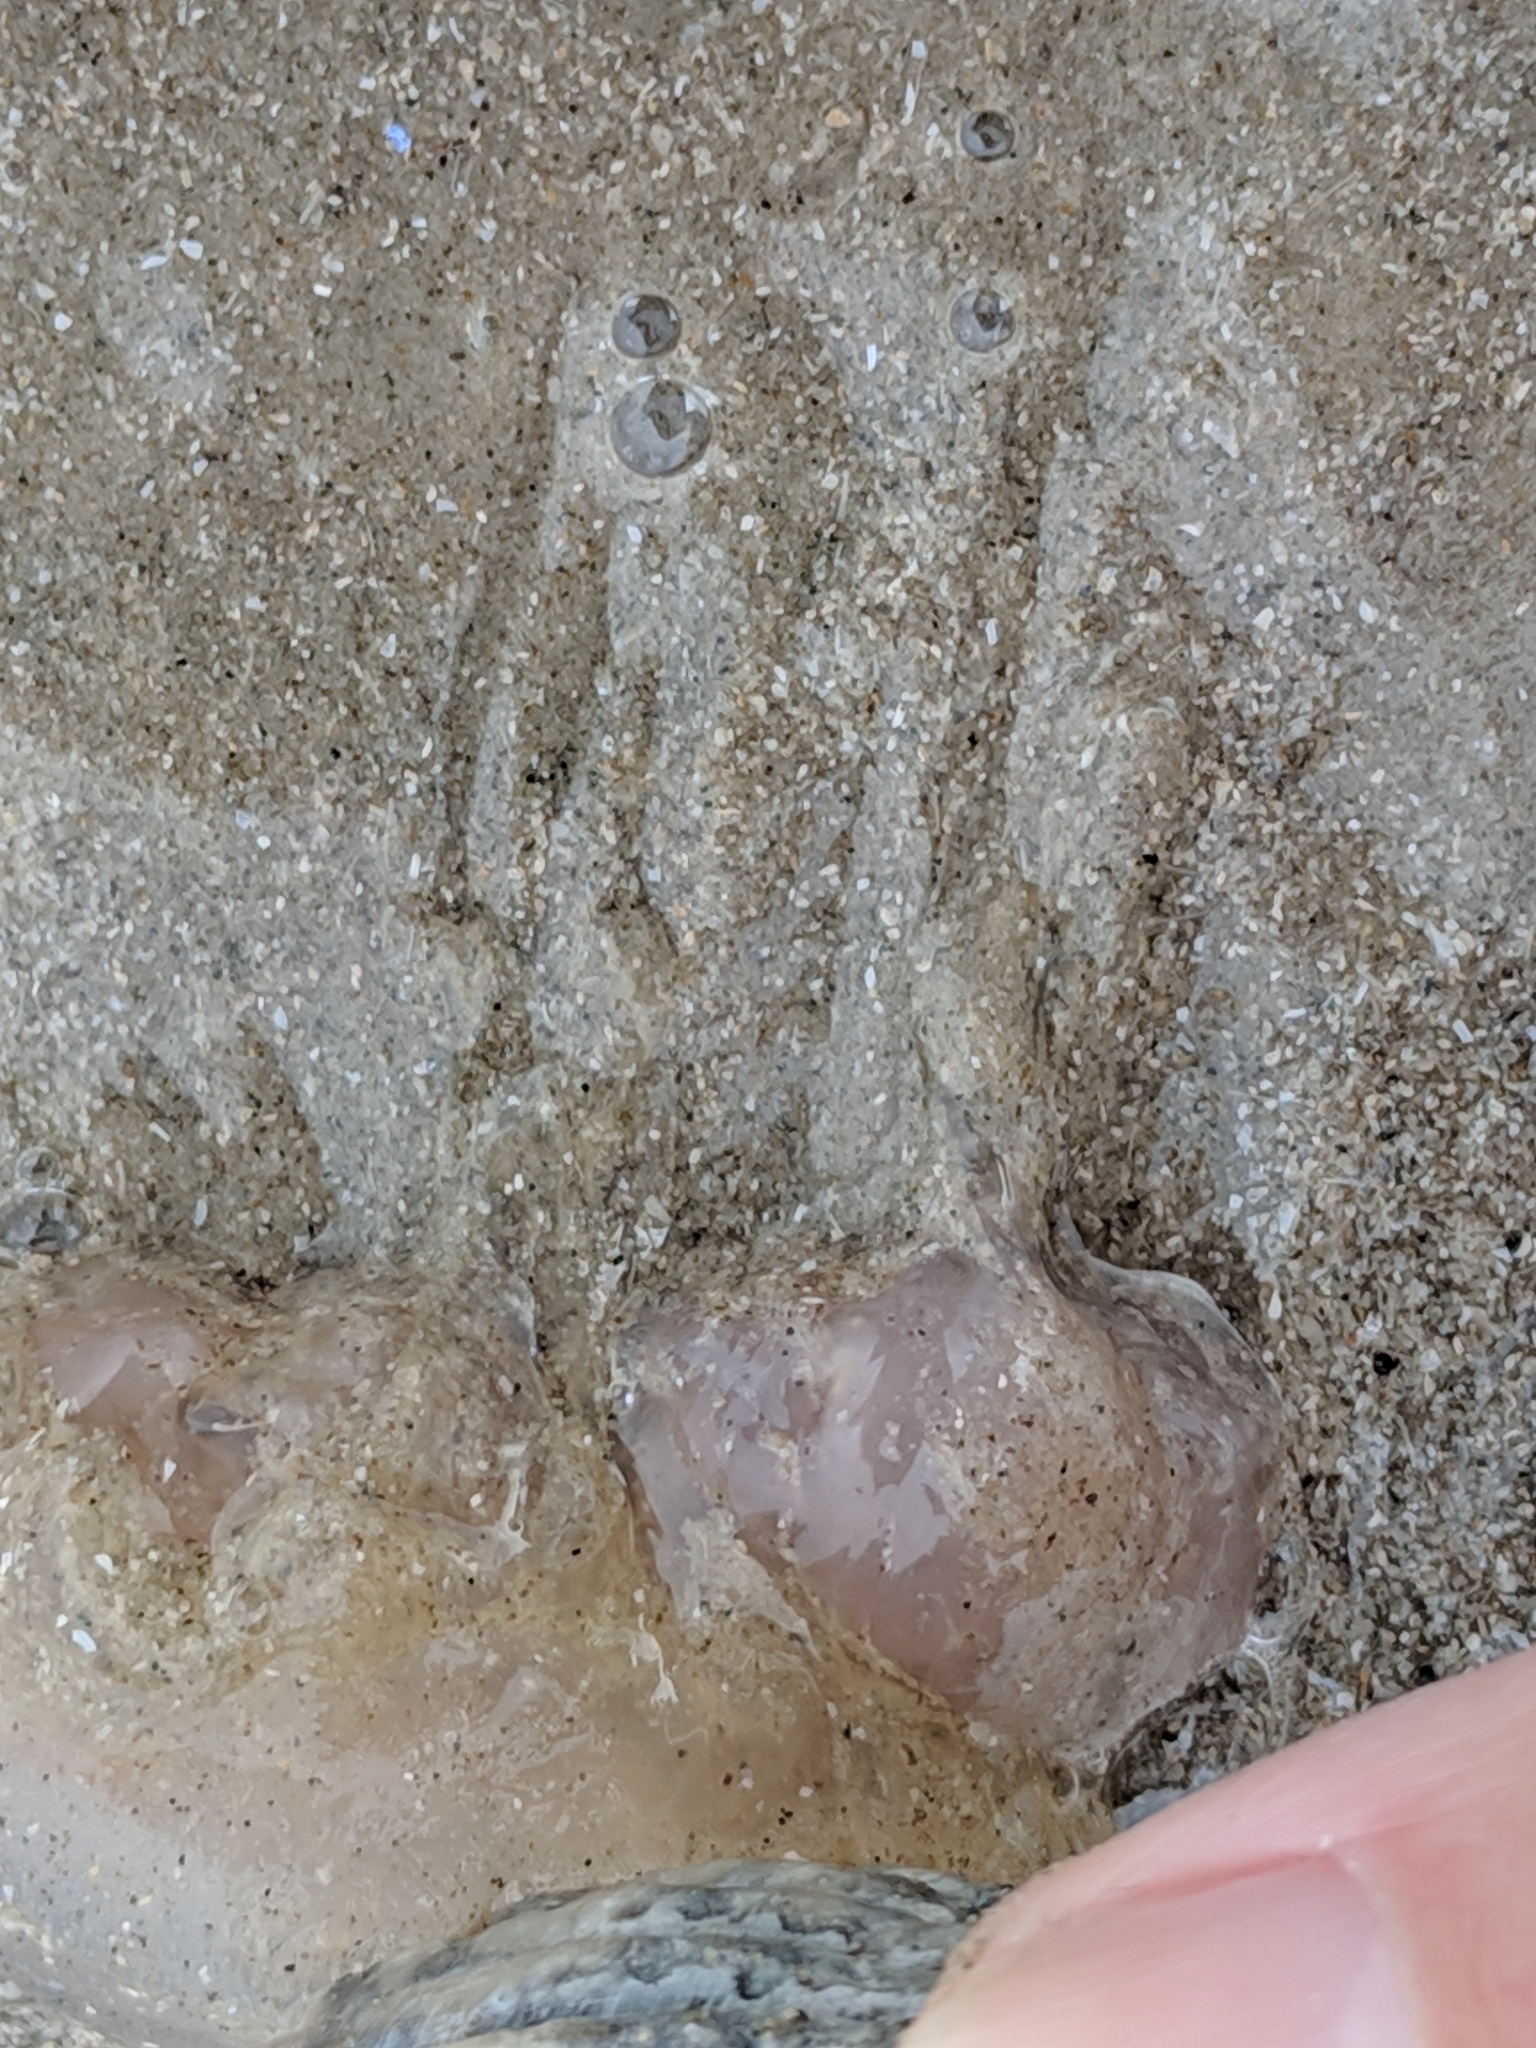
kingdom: Animalia
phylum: Cnidaria
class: Scyphozoa
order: Semaeostomeae
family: Pelagiidae
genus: Chrysaora
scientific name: Chrysaora chesapeakei
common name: Bay nettle
